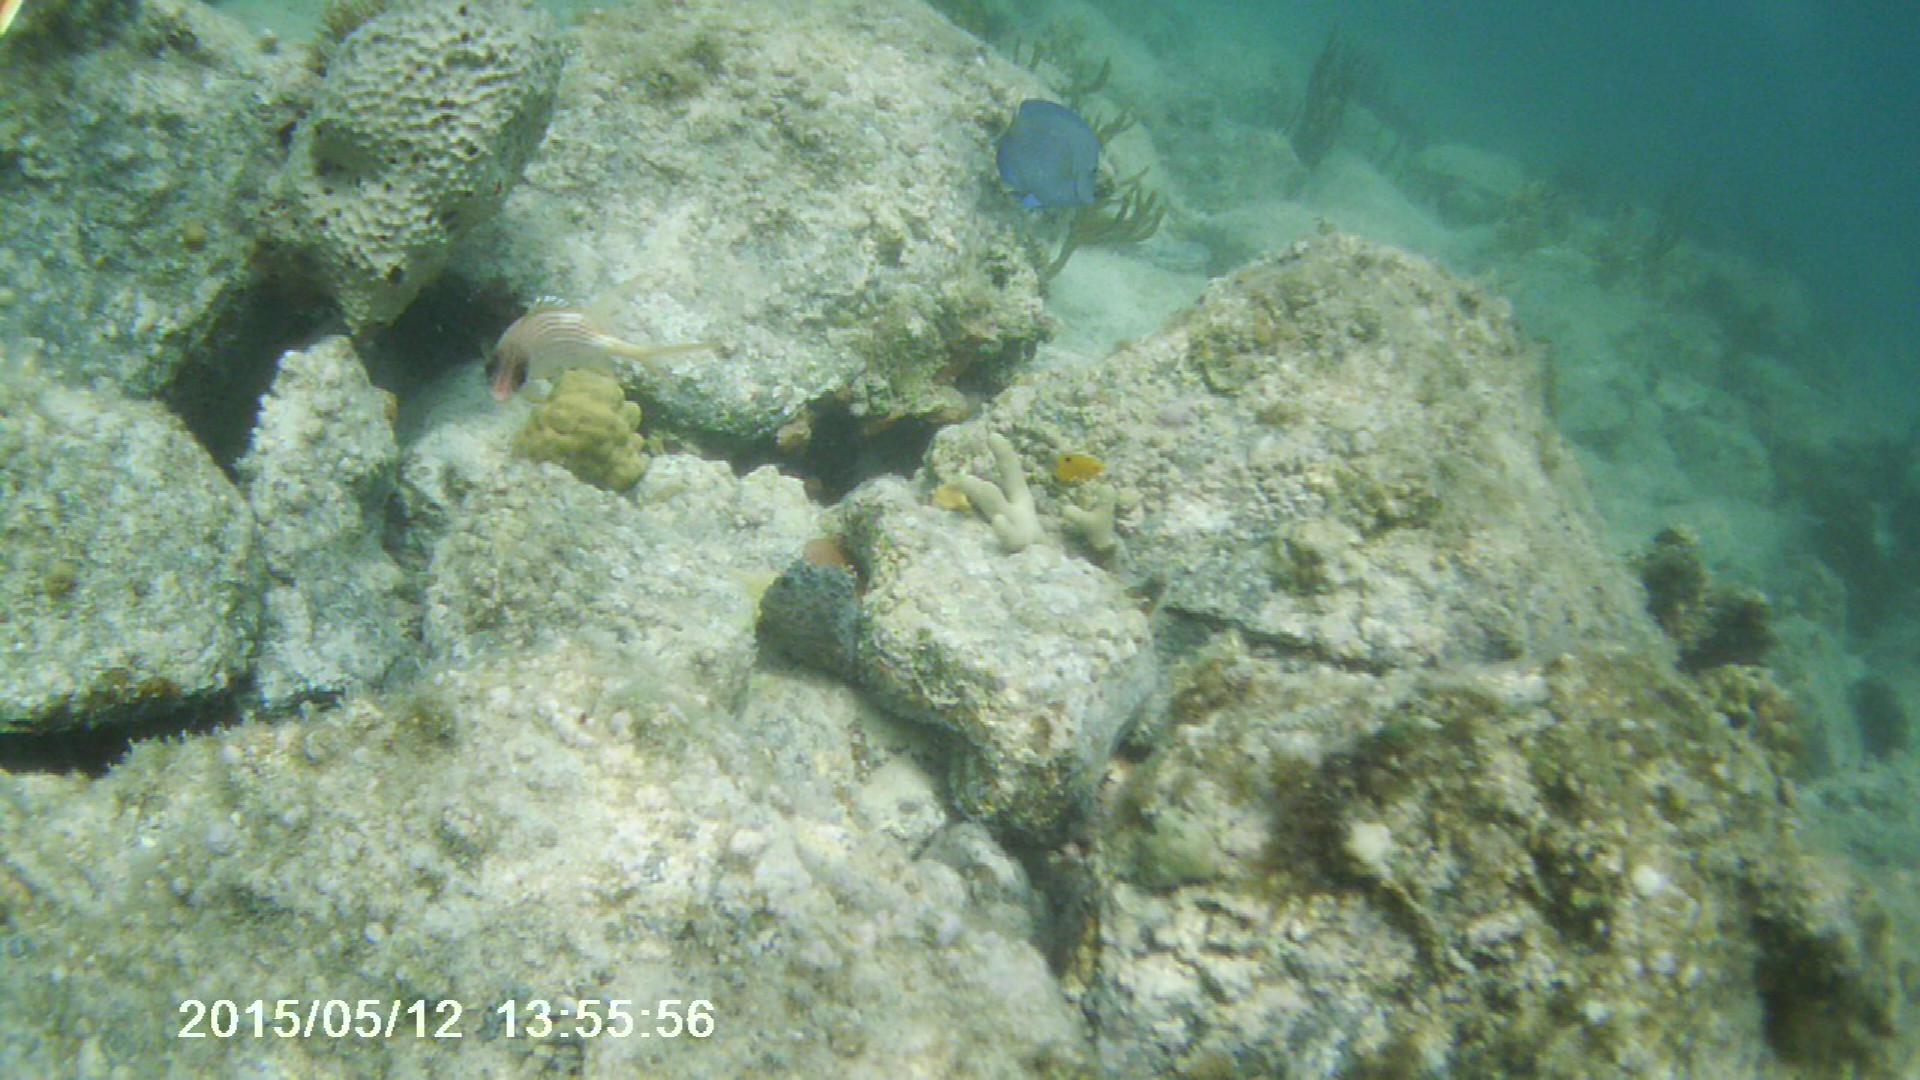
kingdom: Animalia
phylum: Chordata
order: Beryciformes
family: Holocentridae
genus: Holocentrus
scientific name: Holocentrus rufus
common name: Longspine squirrelfish
